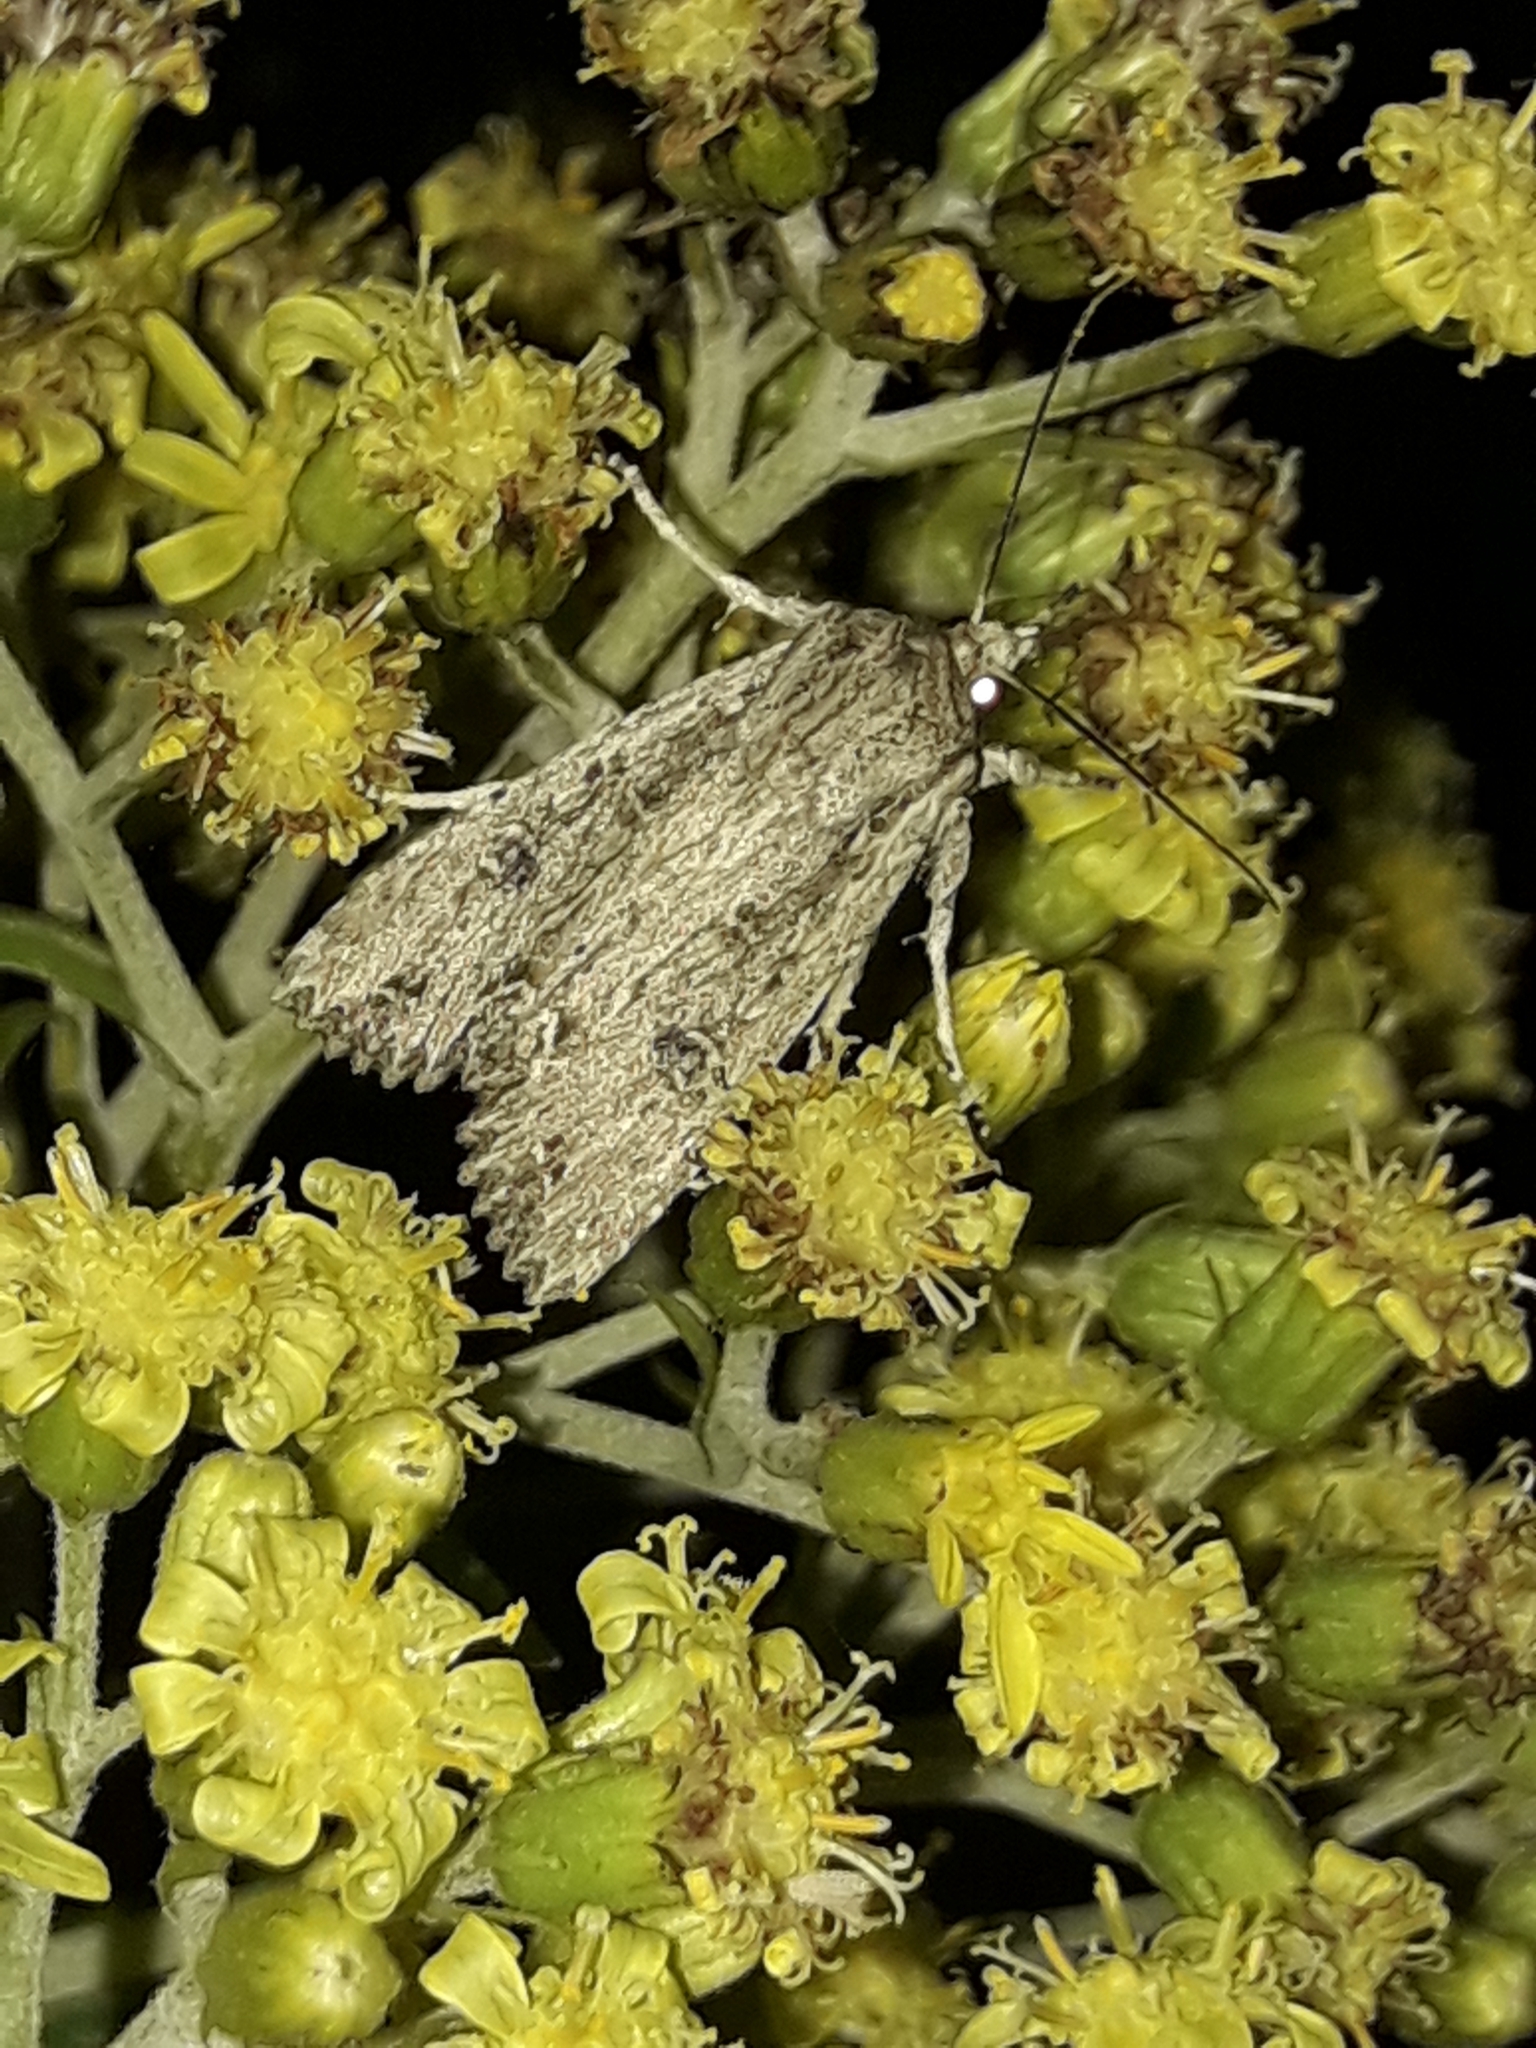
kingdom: Animalia
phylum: Arthropoda
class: Insecta
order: Lepidoptera
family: Noctuidae
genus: Ichneutica
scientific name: Ichneutica lignana
